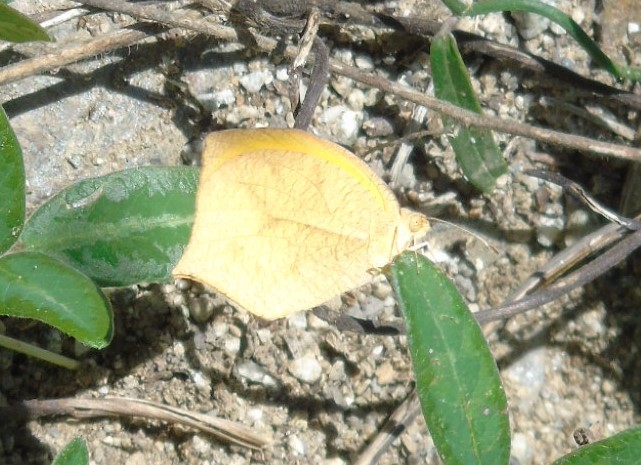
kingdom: Animalia
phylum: Arthropoda
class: Insecta
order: Lepidoptera
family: Pieridae
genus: Pyrisitia
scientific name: Pyrisitia proterpia
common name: Tailed orange
